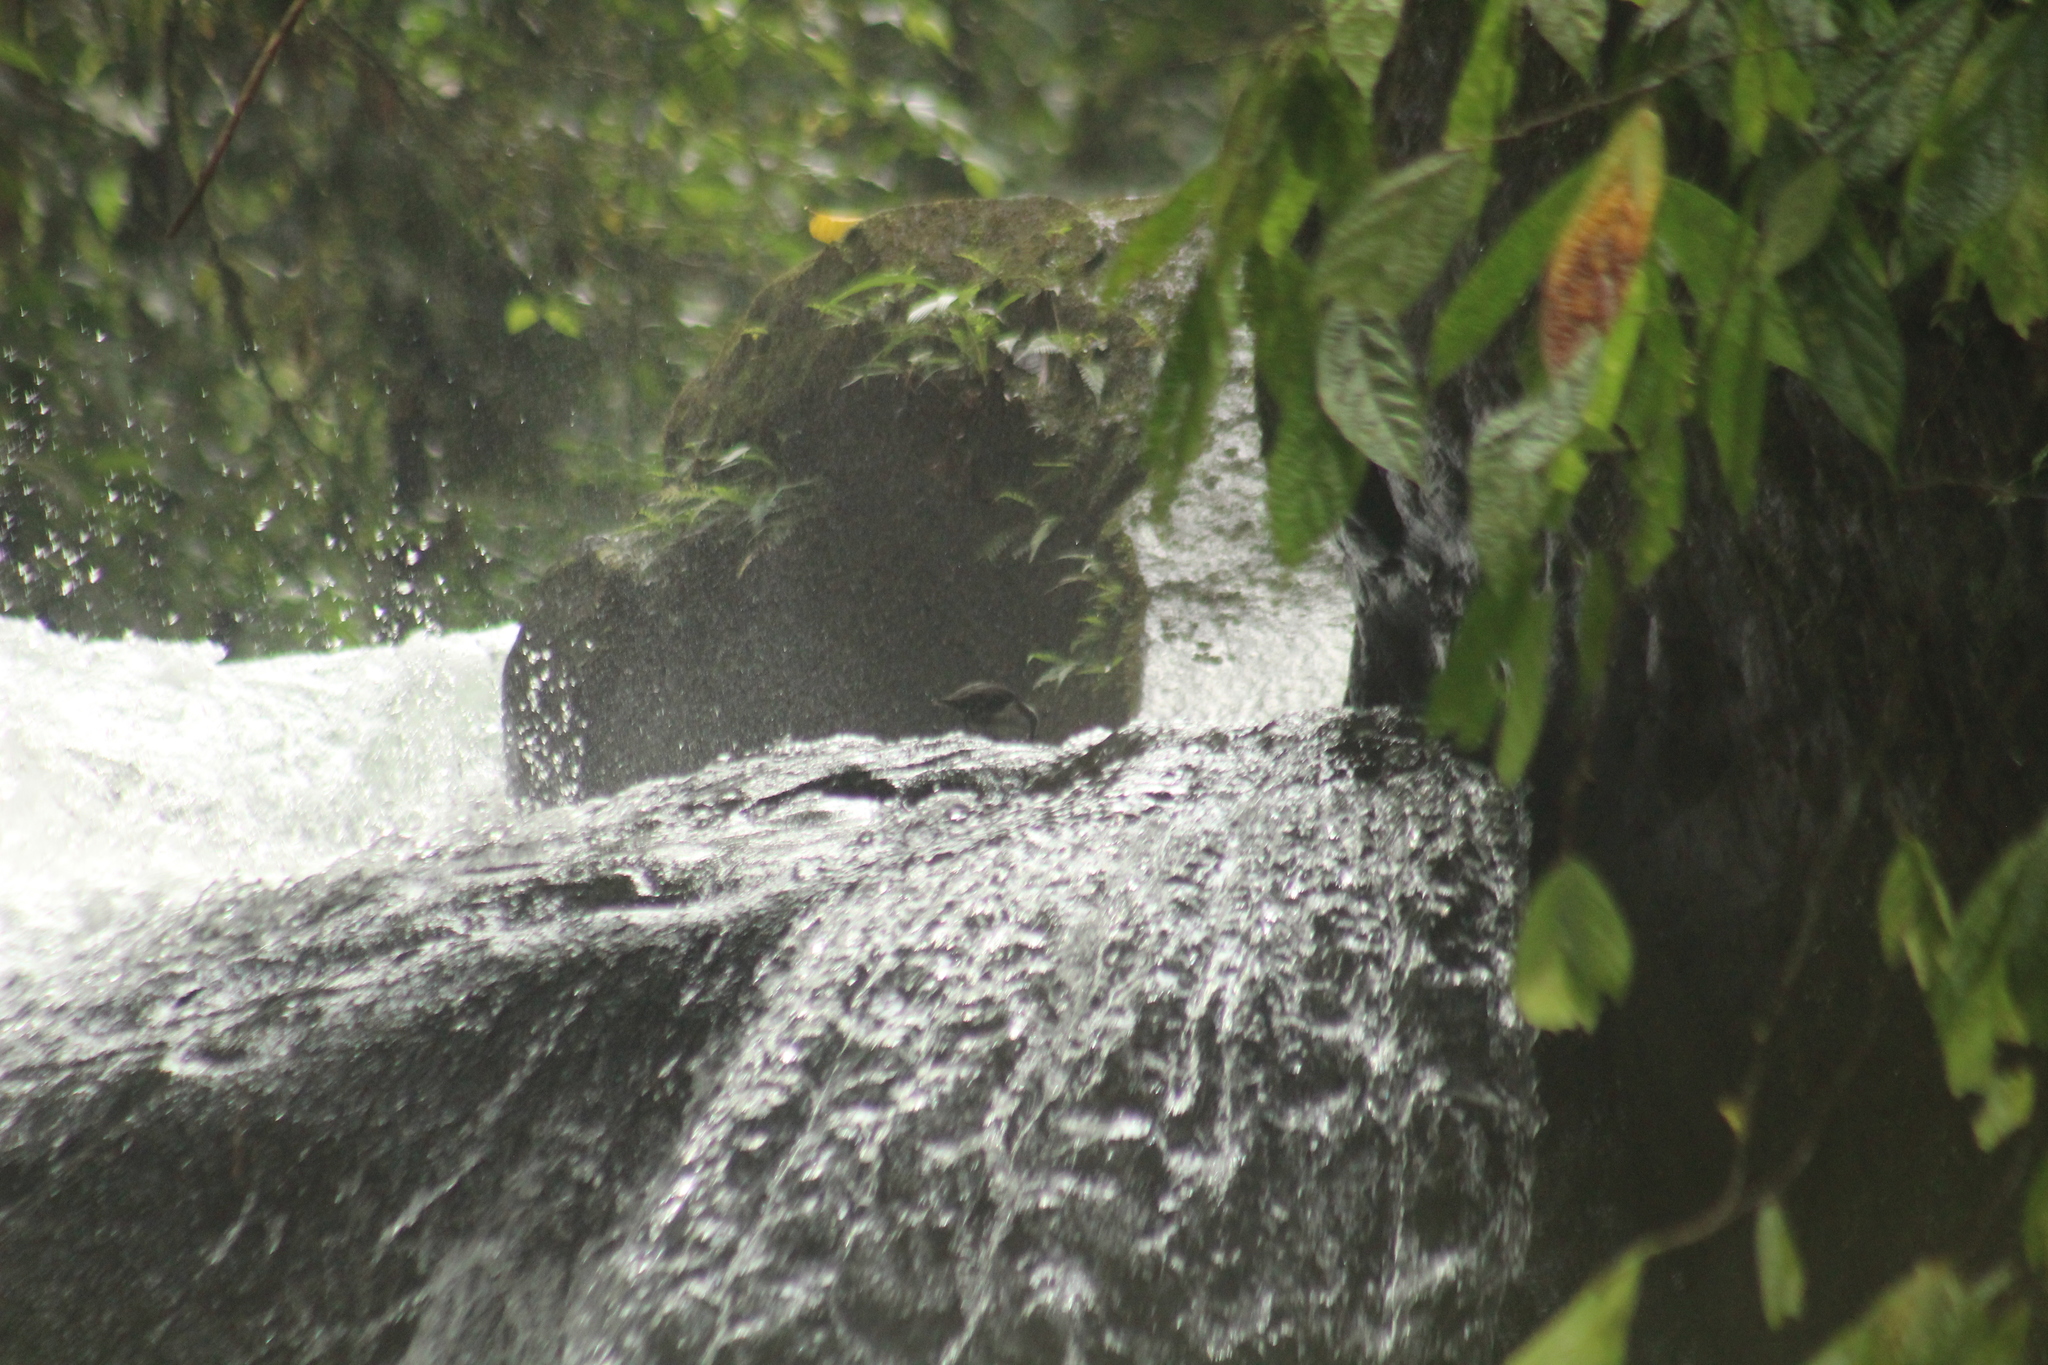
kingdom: Animalia
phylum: Chordata
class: Aves
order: Passeriformes
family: Cinclidae
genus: Cinclus
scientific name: Cinclus leucocephalus
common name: White-capped dipper
